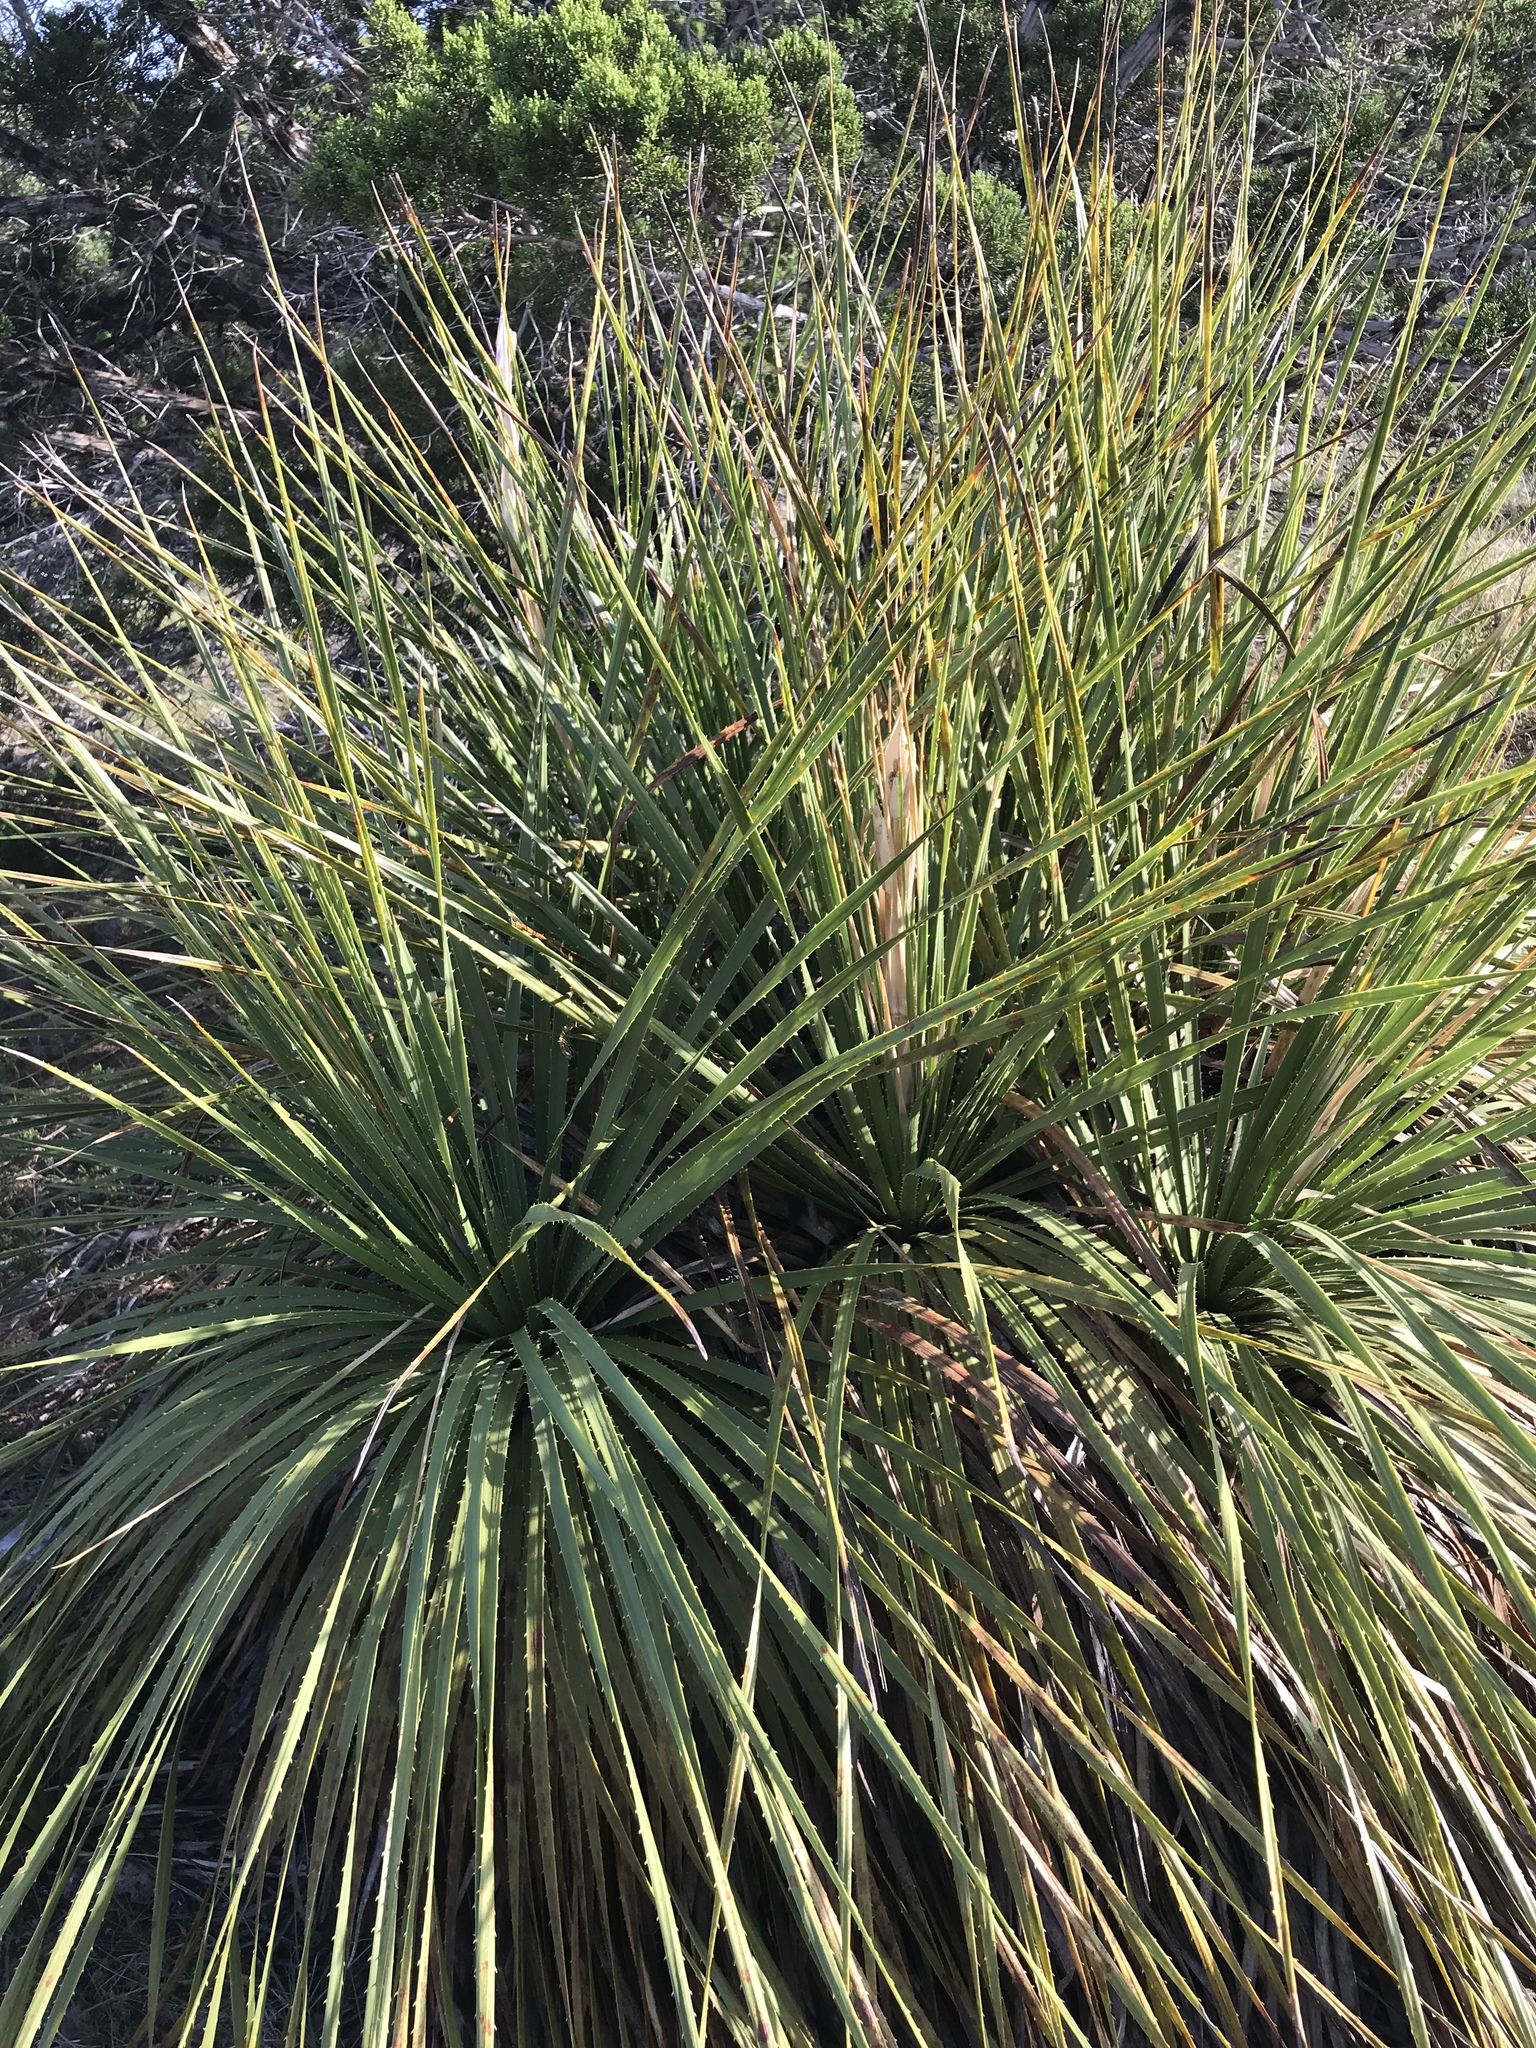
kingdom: Plantae
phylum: Tracheophyta
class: Liliopsida
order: Asparagales
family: Asparagaceae
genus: Dasylirion
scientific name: Dasylirion texanum
